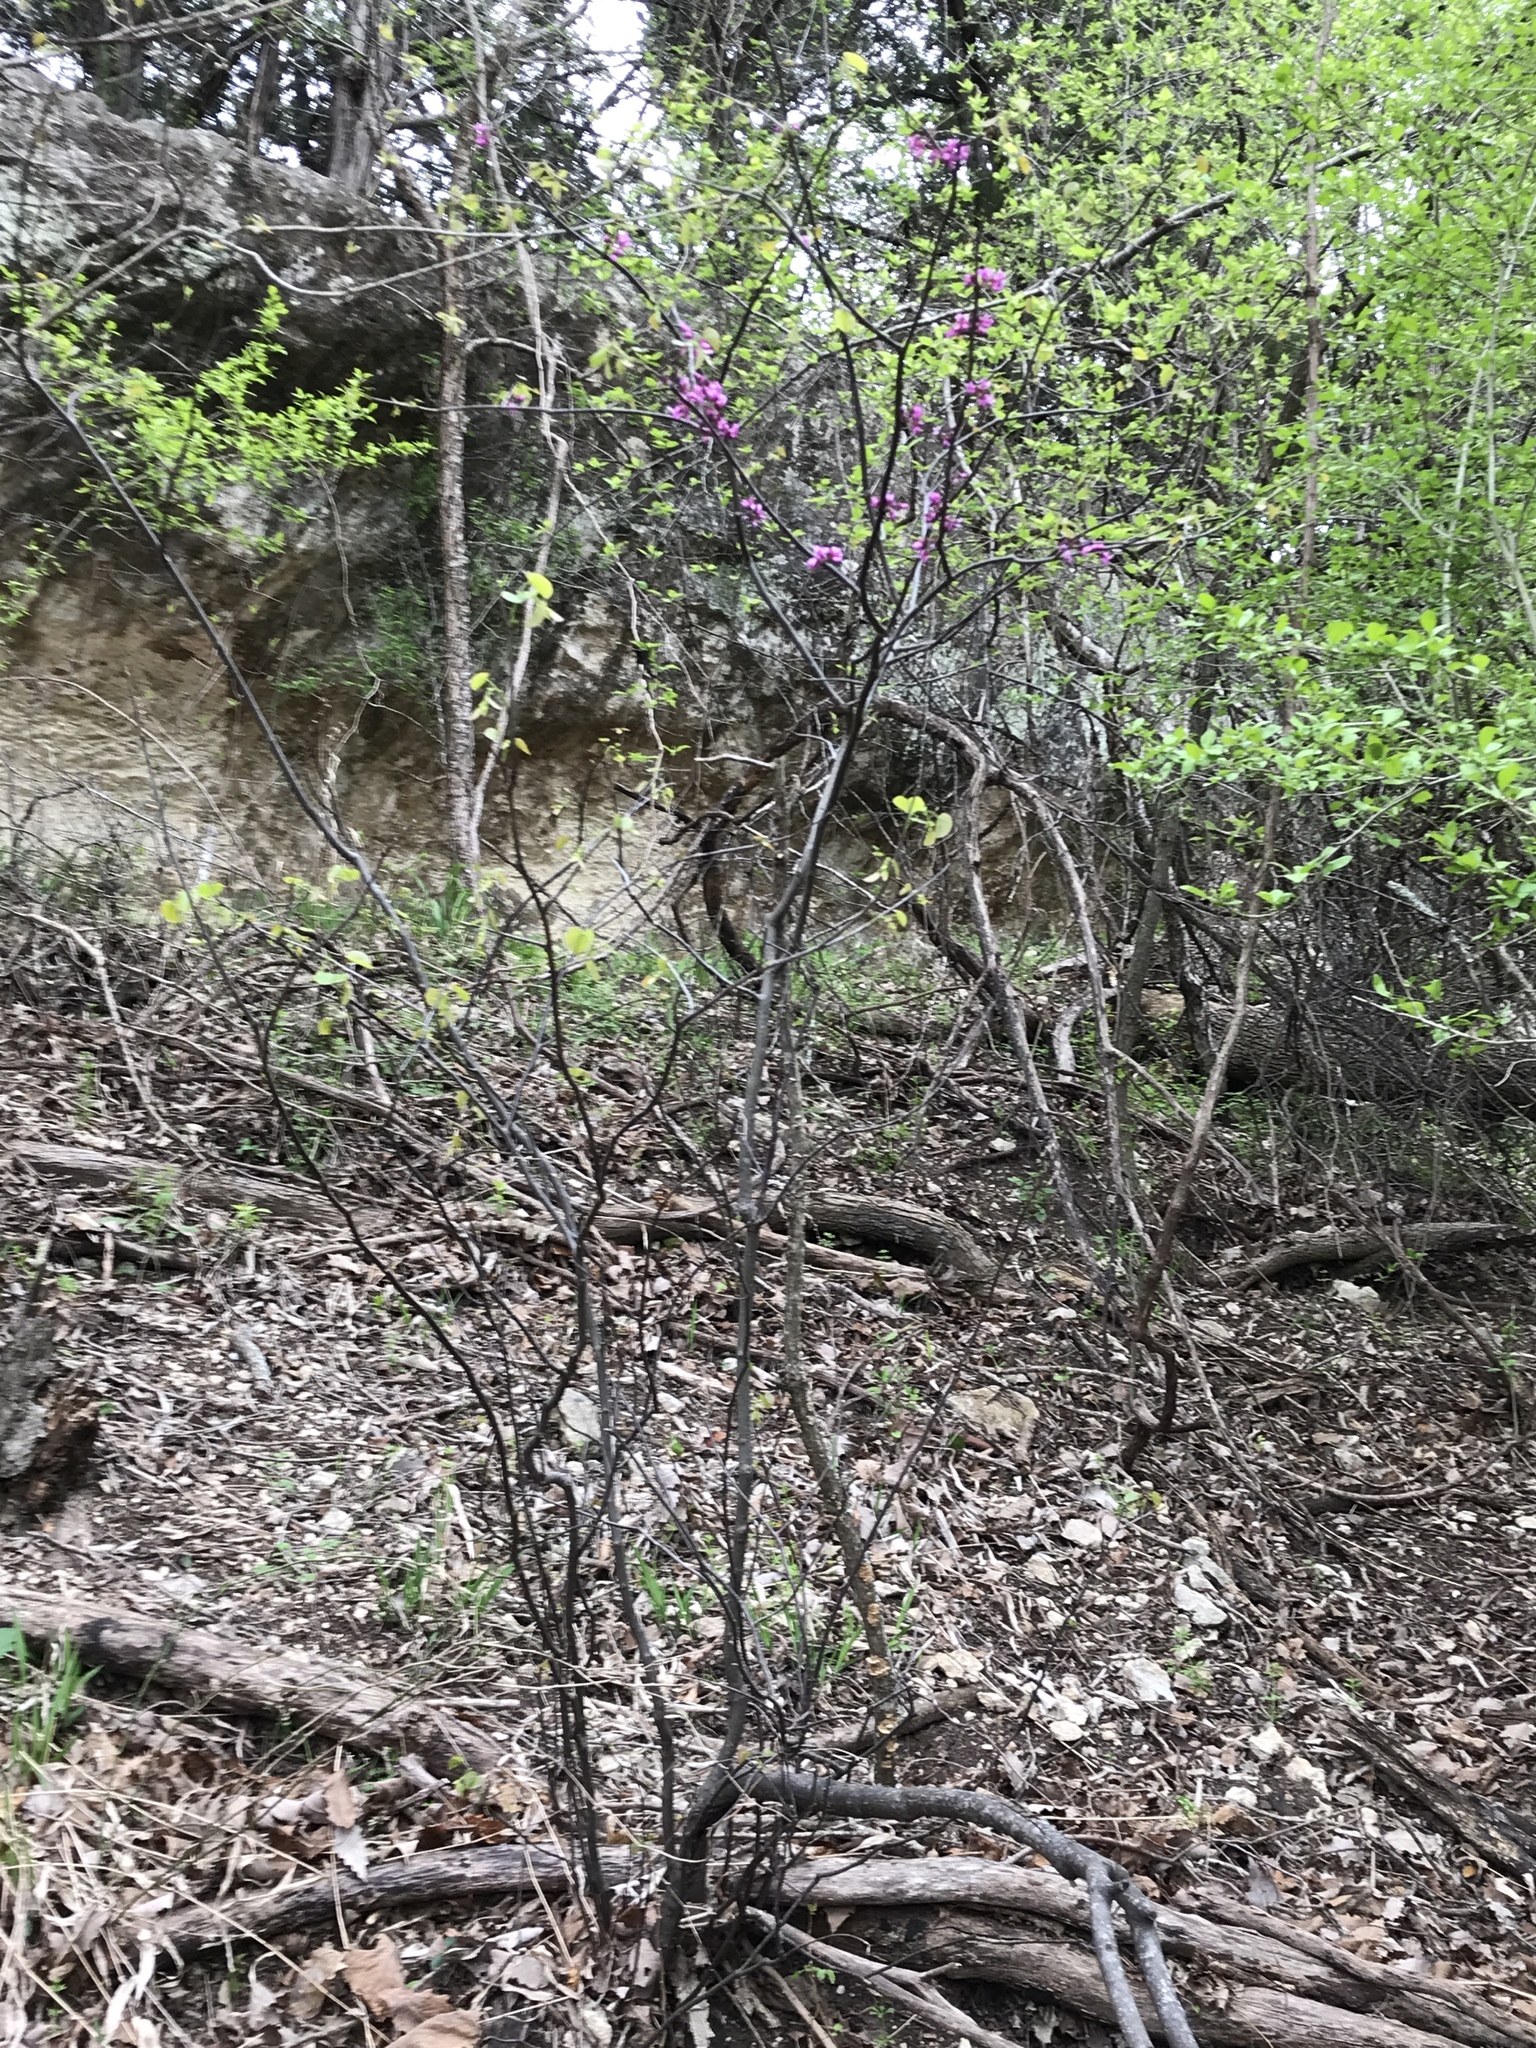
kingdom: Plantae
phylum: Tracheophyta
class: Magnoliopsida
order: Fabales
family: Fabaceae
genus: Cercis
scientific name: Cercis canadensis
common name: Eastern redbud
